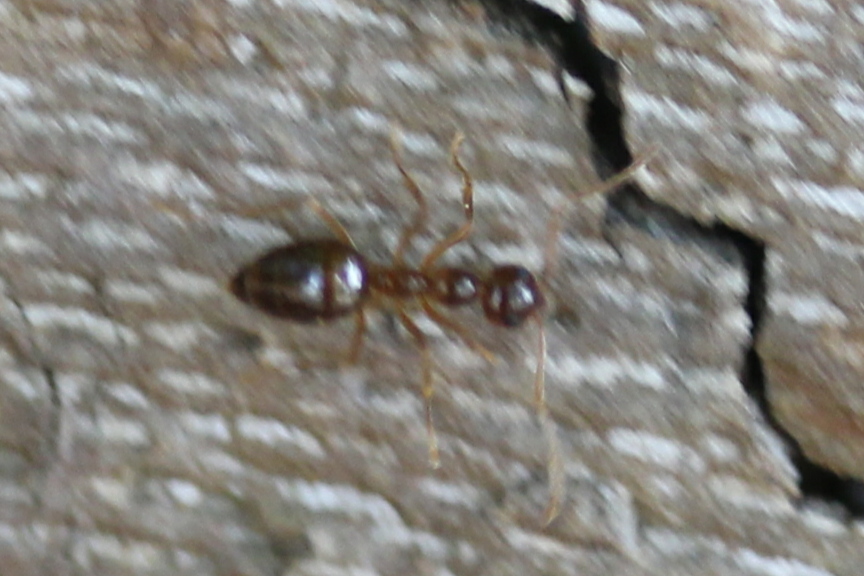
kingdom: Animalia
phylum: Arthropoda
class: Insecta
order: Hymenoptera
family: Formicidae
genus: Prenolepis
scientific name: Prenolepis imparis
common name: Small honey ant
